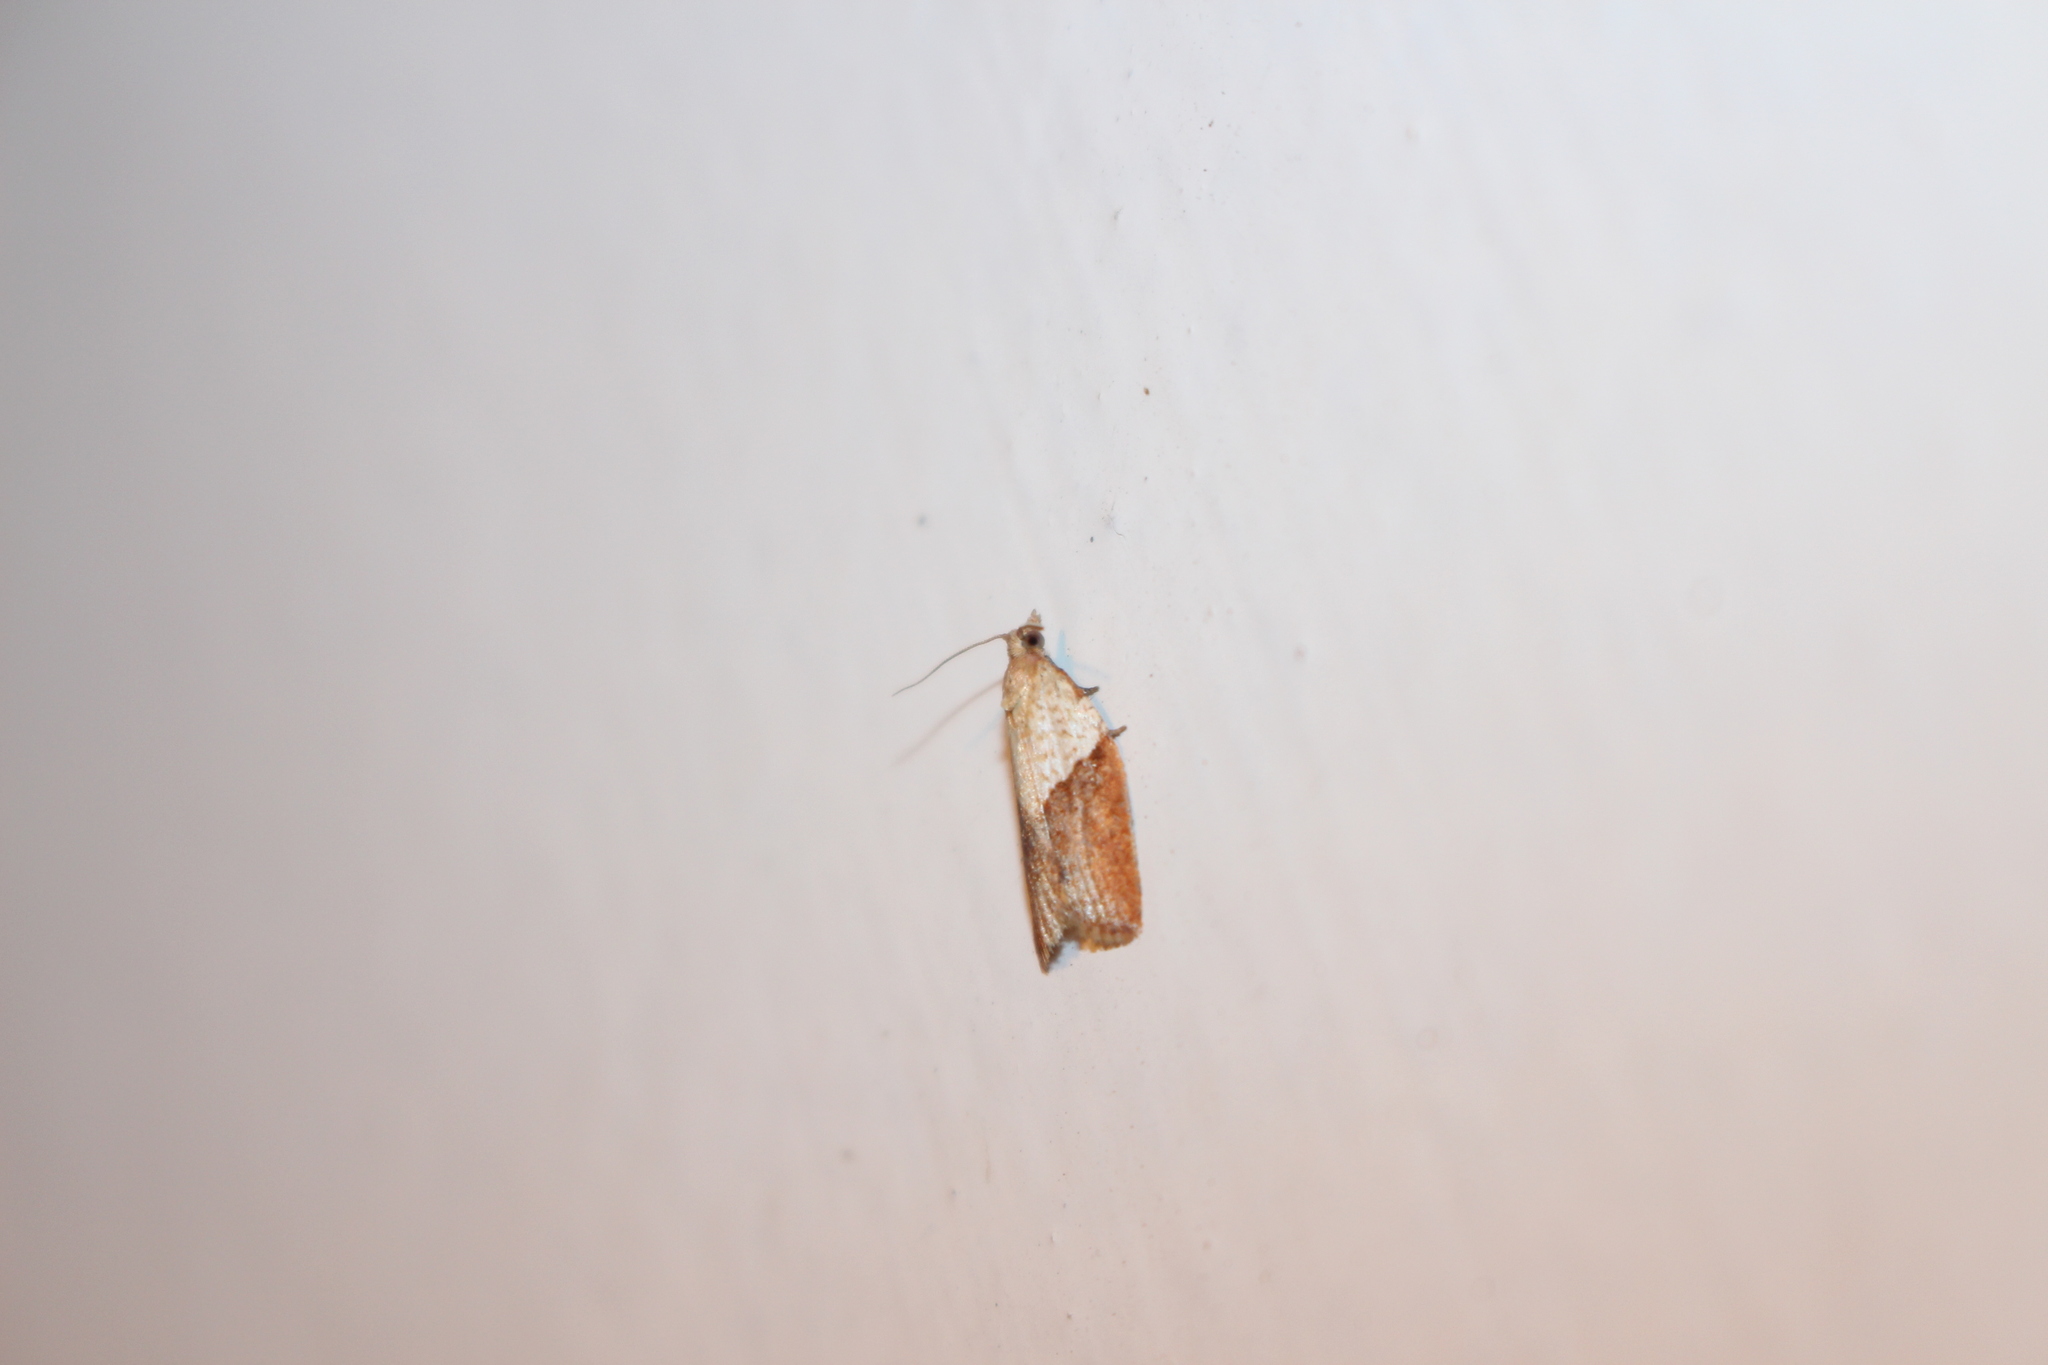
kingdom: Animalia
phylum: Arthropoda
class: Insecta
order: Lepidoptera
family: Tortricidae
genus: Epiphyas
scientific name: Epiphyas postvittana
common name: Light brown apple moth
